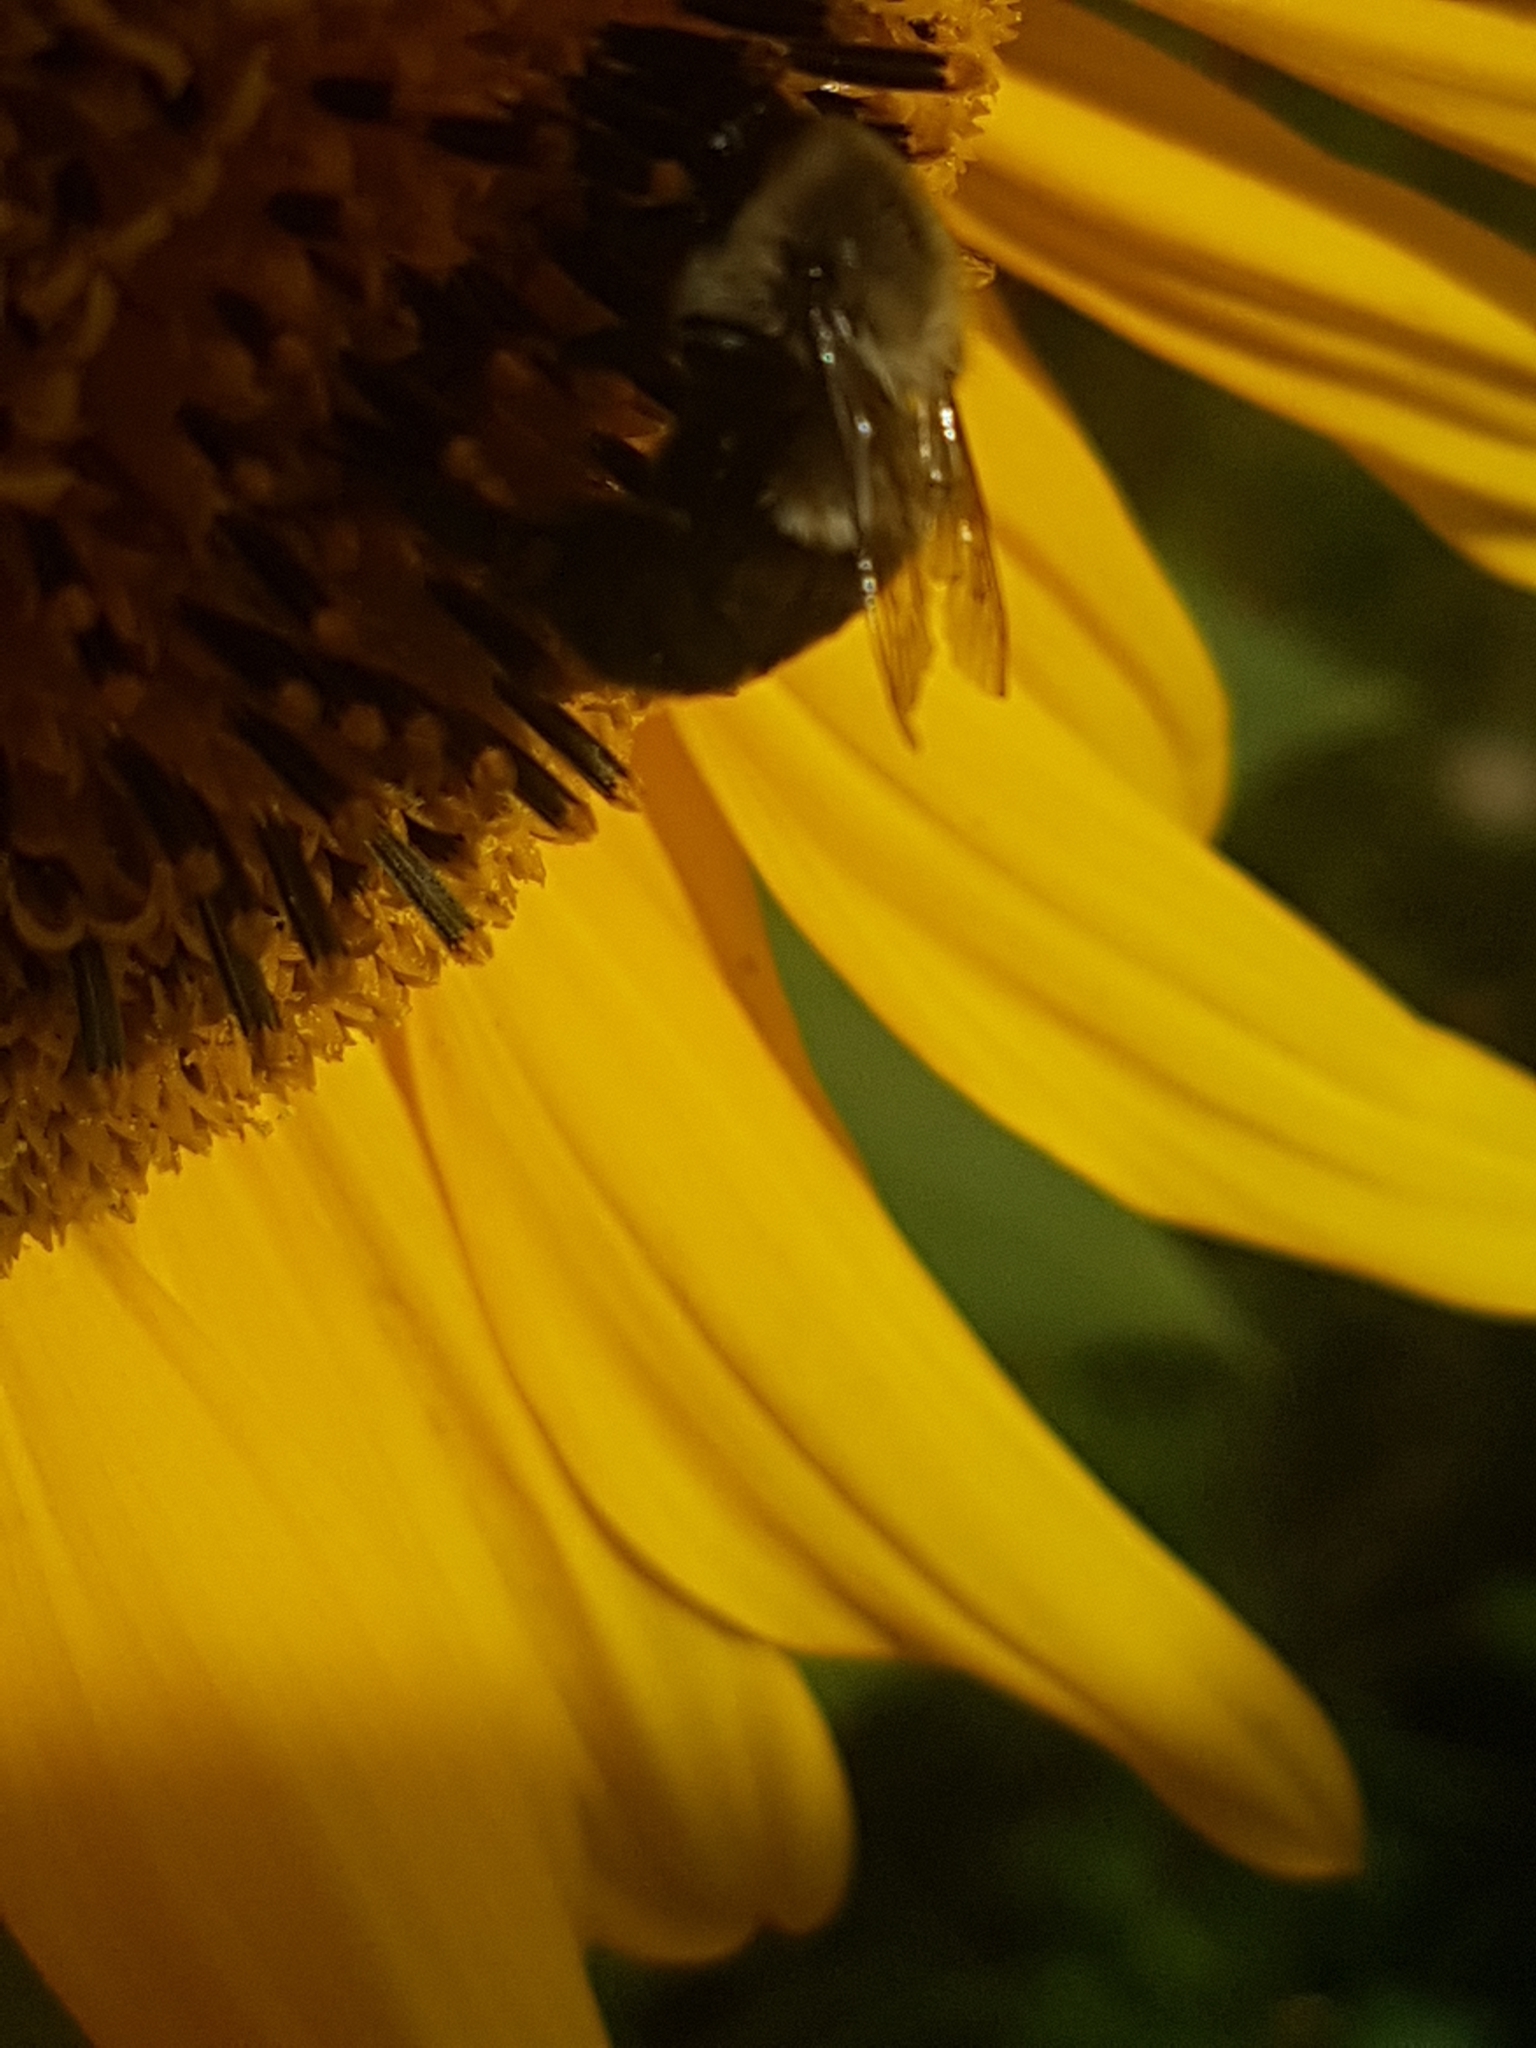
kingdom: Animalia
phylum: Arthropoda
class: Insecta
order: Hymenoptera
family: Apidae
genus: Bombus
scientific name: Bombus impatiens
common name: Common eastern bumble bee
